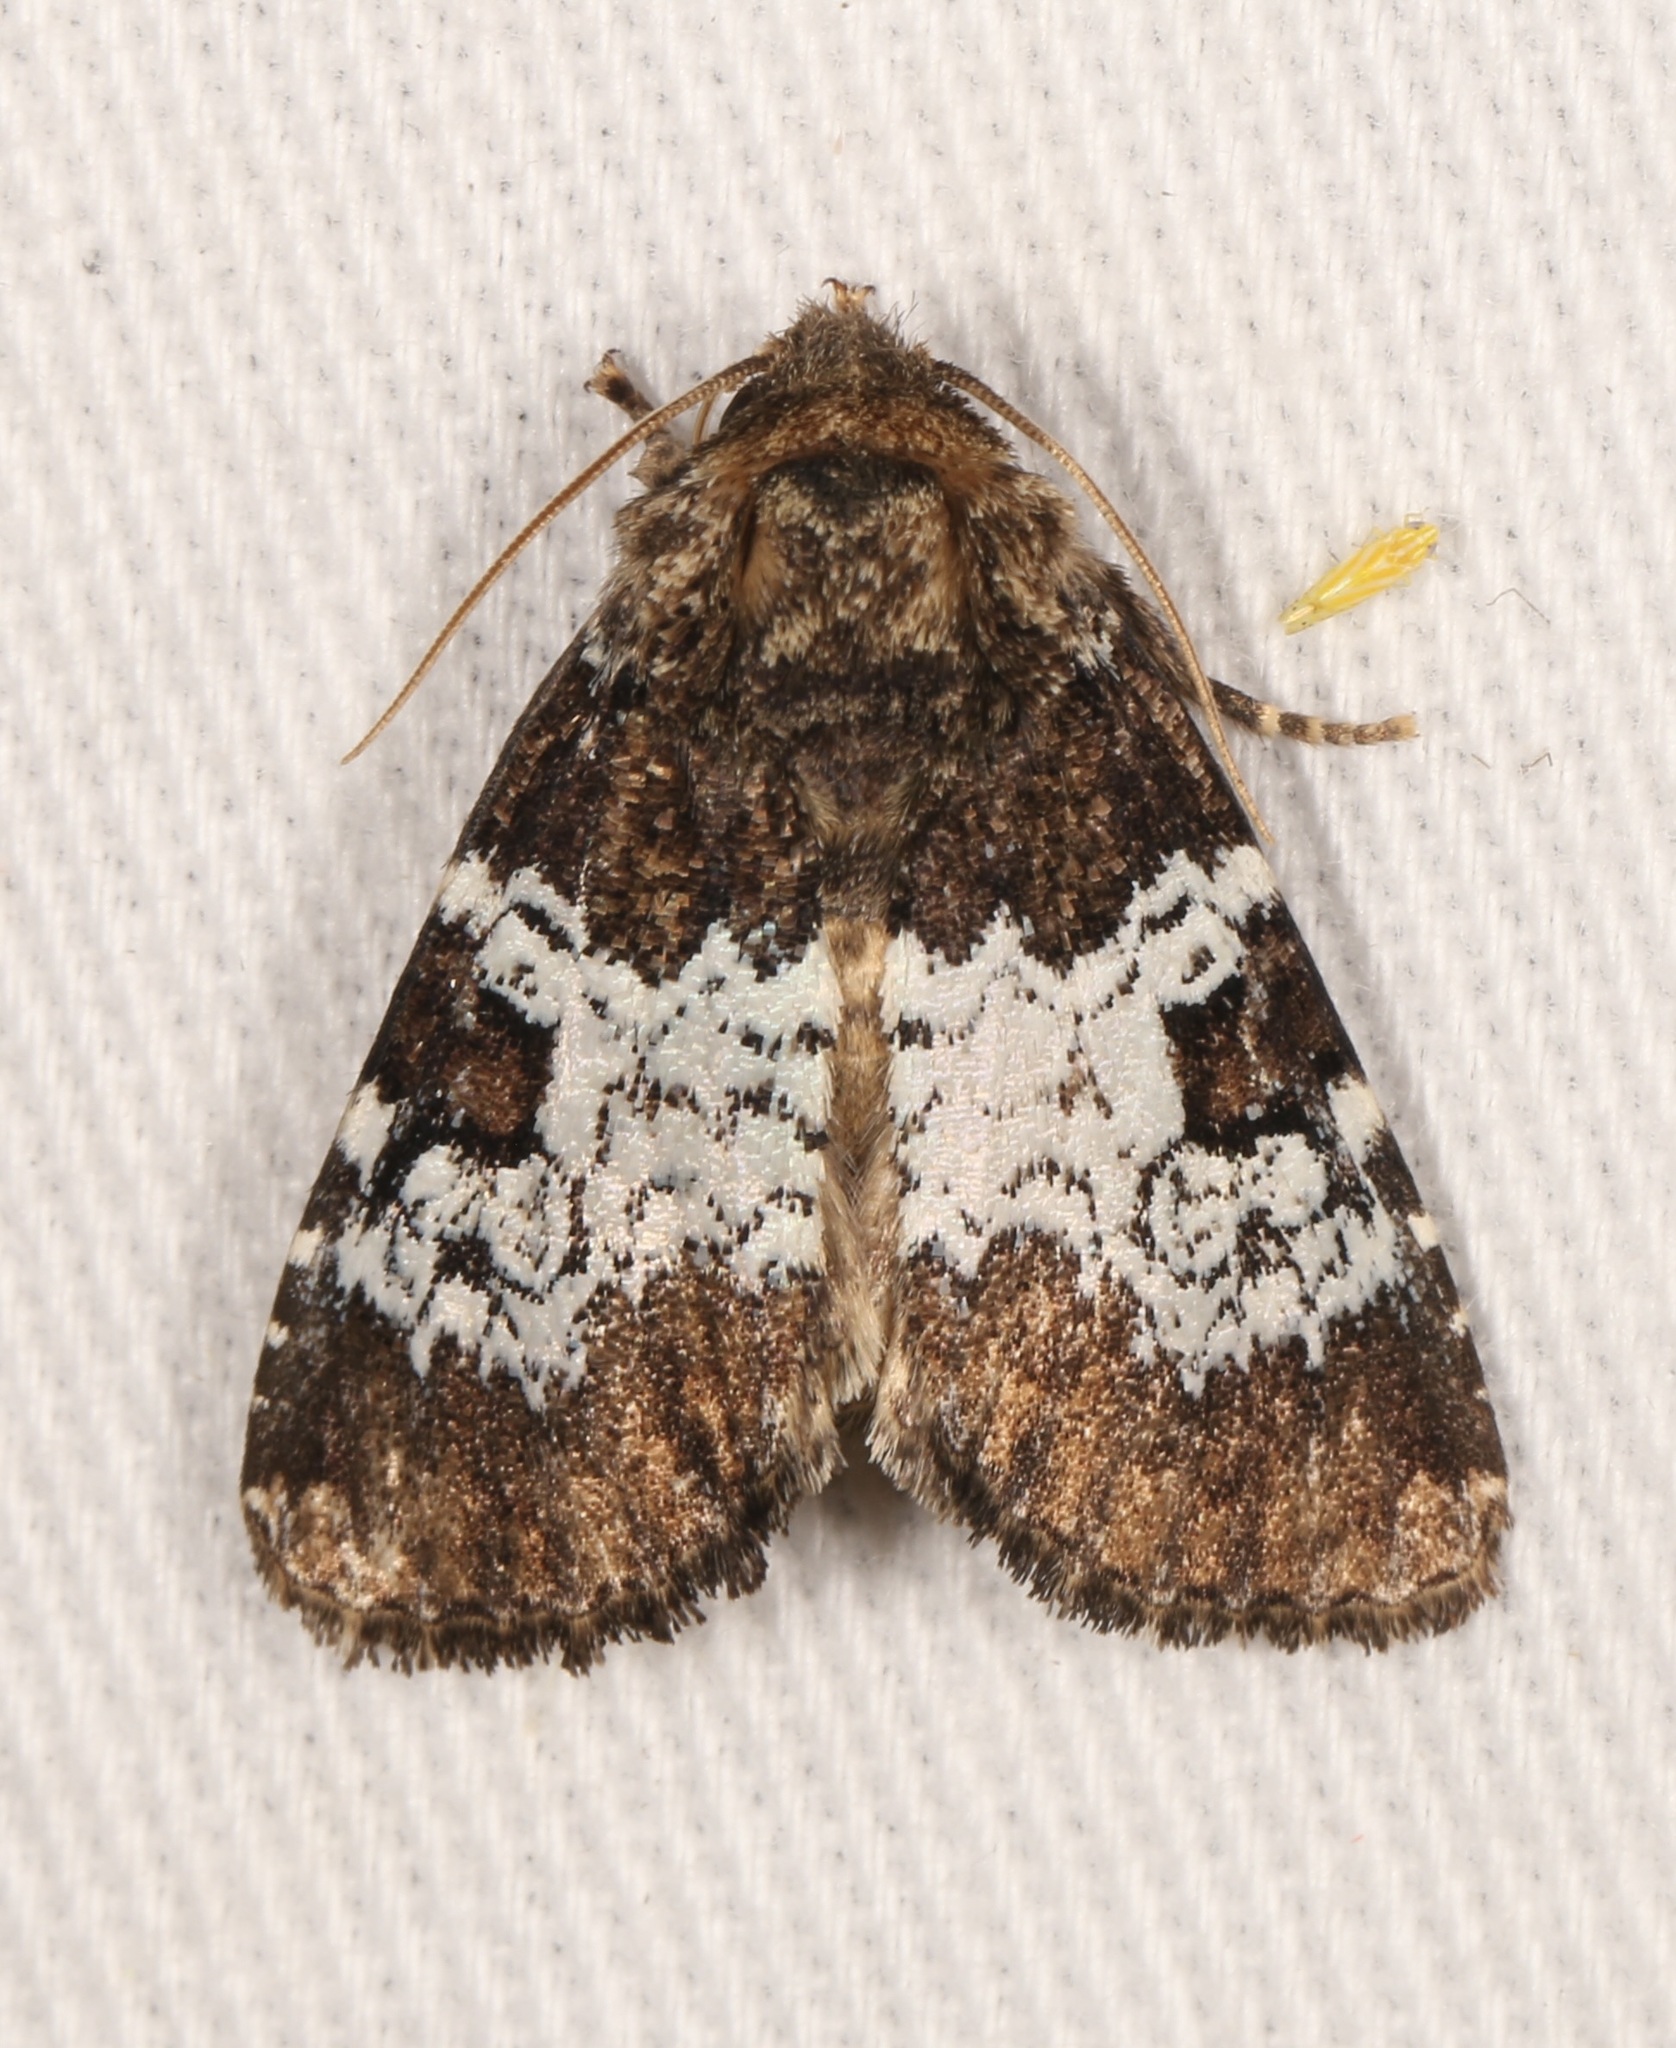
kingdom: Animalia
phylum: Arthropoda
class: Insecta
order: Lepidoptera
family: Noctuidae
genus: Euamiana
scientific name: Euamiana contrasta
